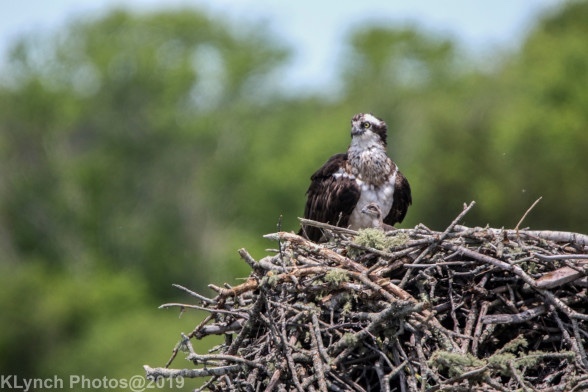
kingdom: Animalia
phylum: Chordata
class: Aves
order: Accipitriformes
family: Pandionidae
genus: Pandion
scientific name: Pandion haliaetus
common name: Osprey
